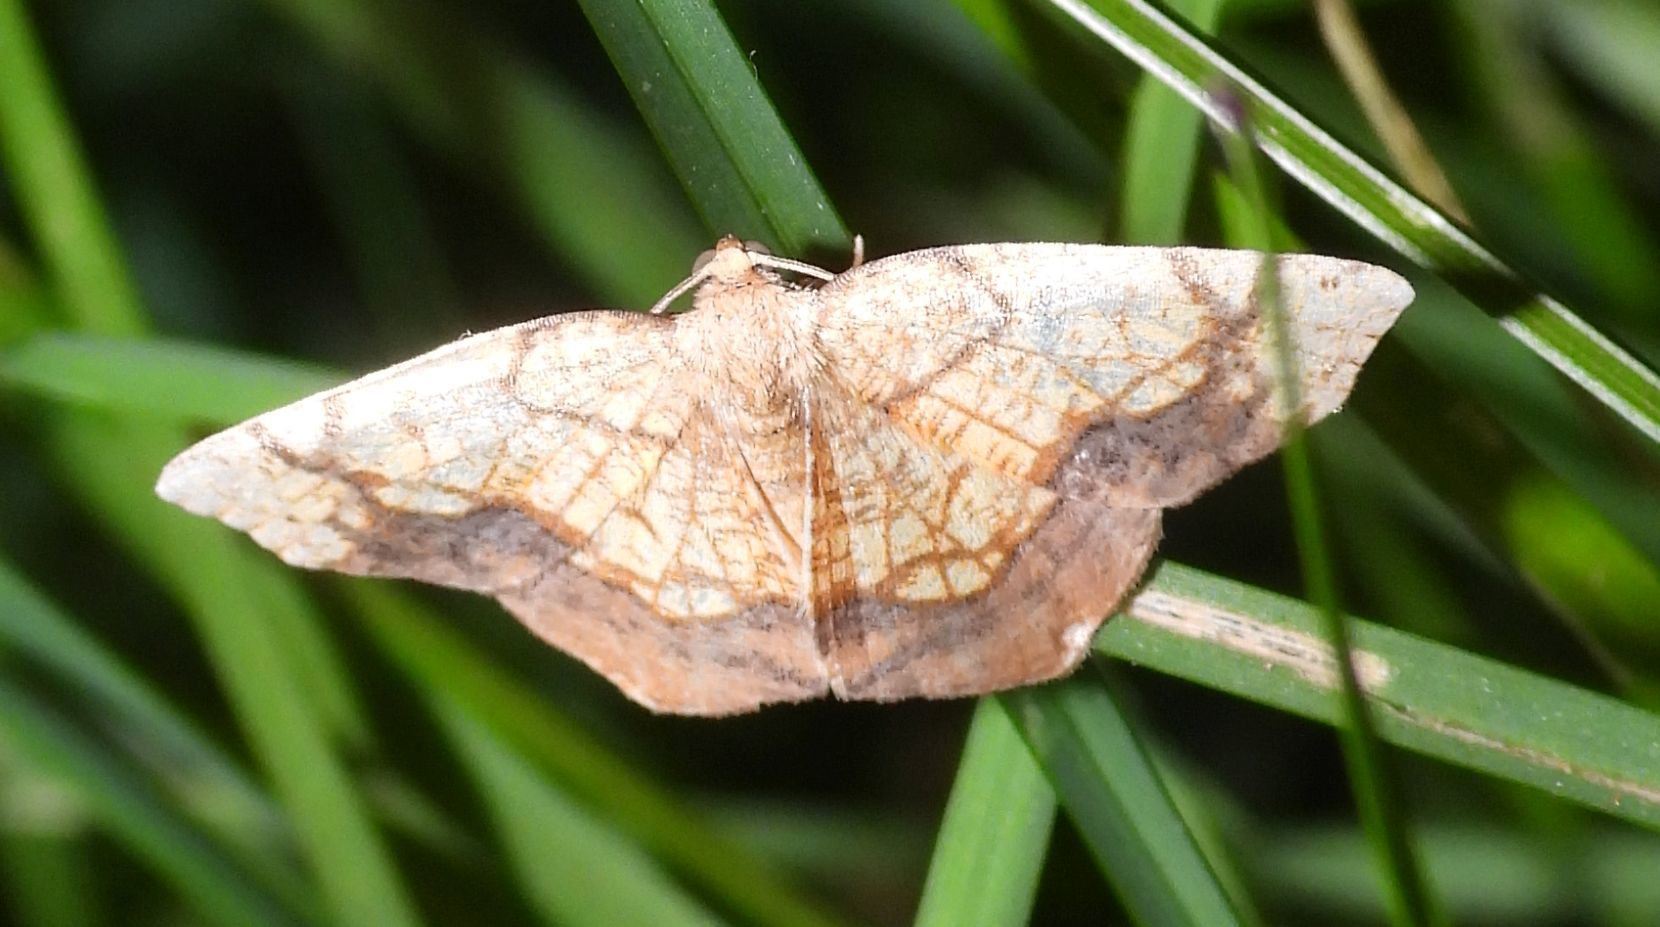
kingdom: Animalia
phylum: Arthropoda
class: Insecta
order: Lepidoptera
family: Geometridae
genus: Nematocampa
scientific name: Nematocampa resistaria
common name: Horned spanworm moth
